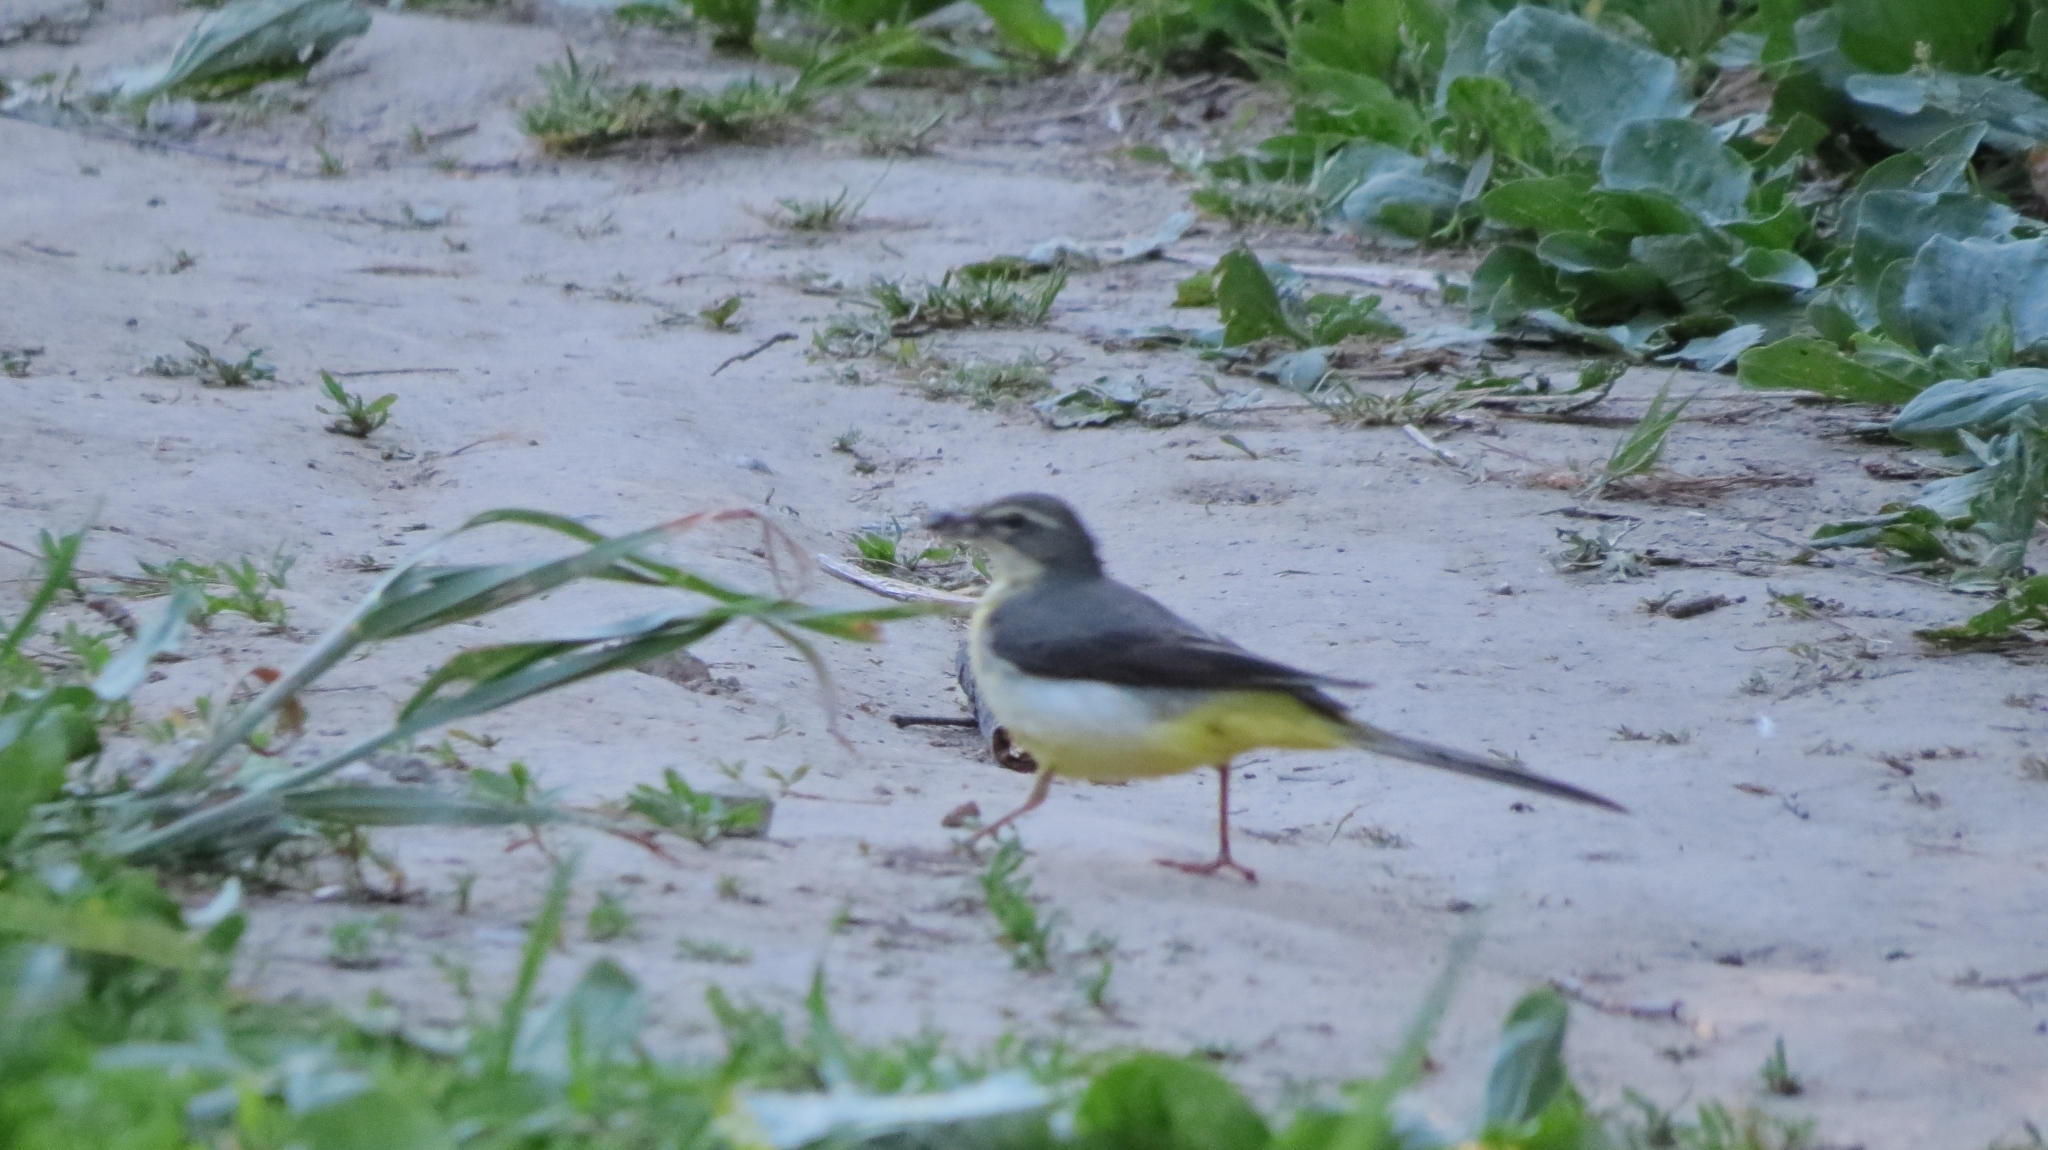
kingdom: Animalia
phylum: Chordata
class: Aves
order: Passeriformes
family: Motacillidae
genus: Motacilla
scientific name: Motacilla cinerea
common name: Grey wagtail
